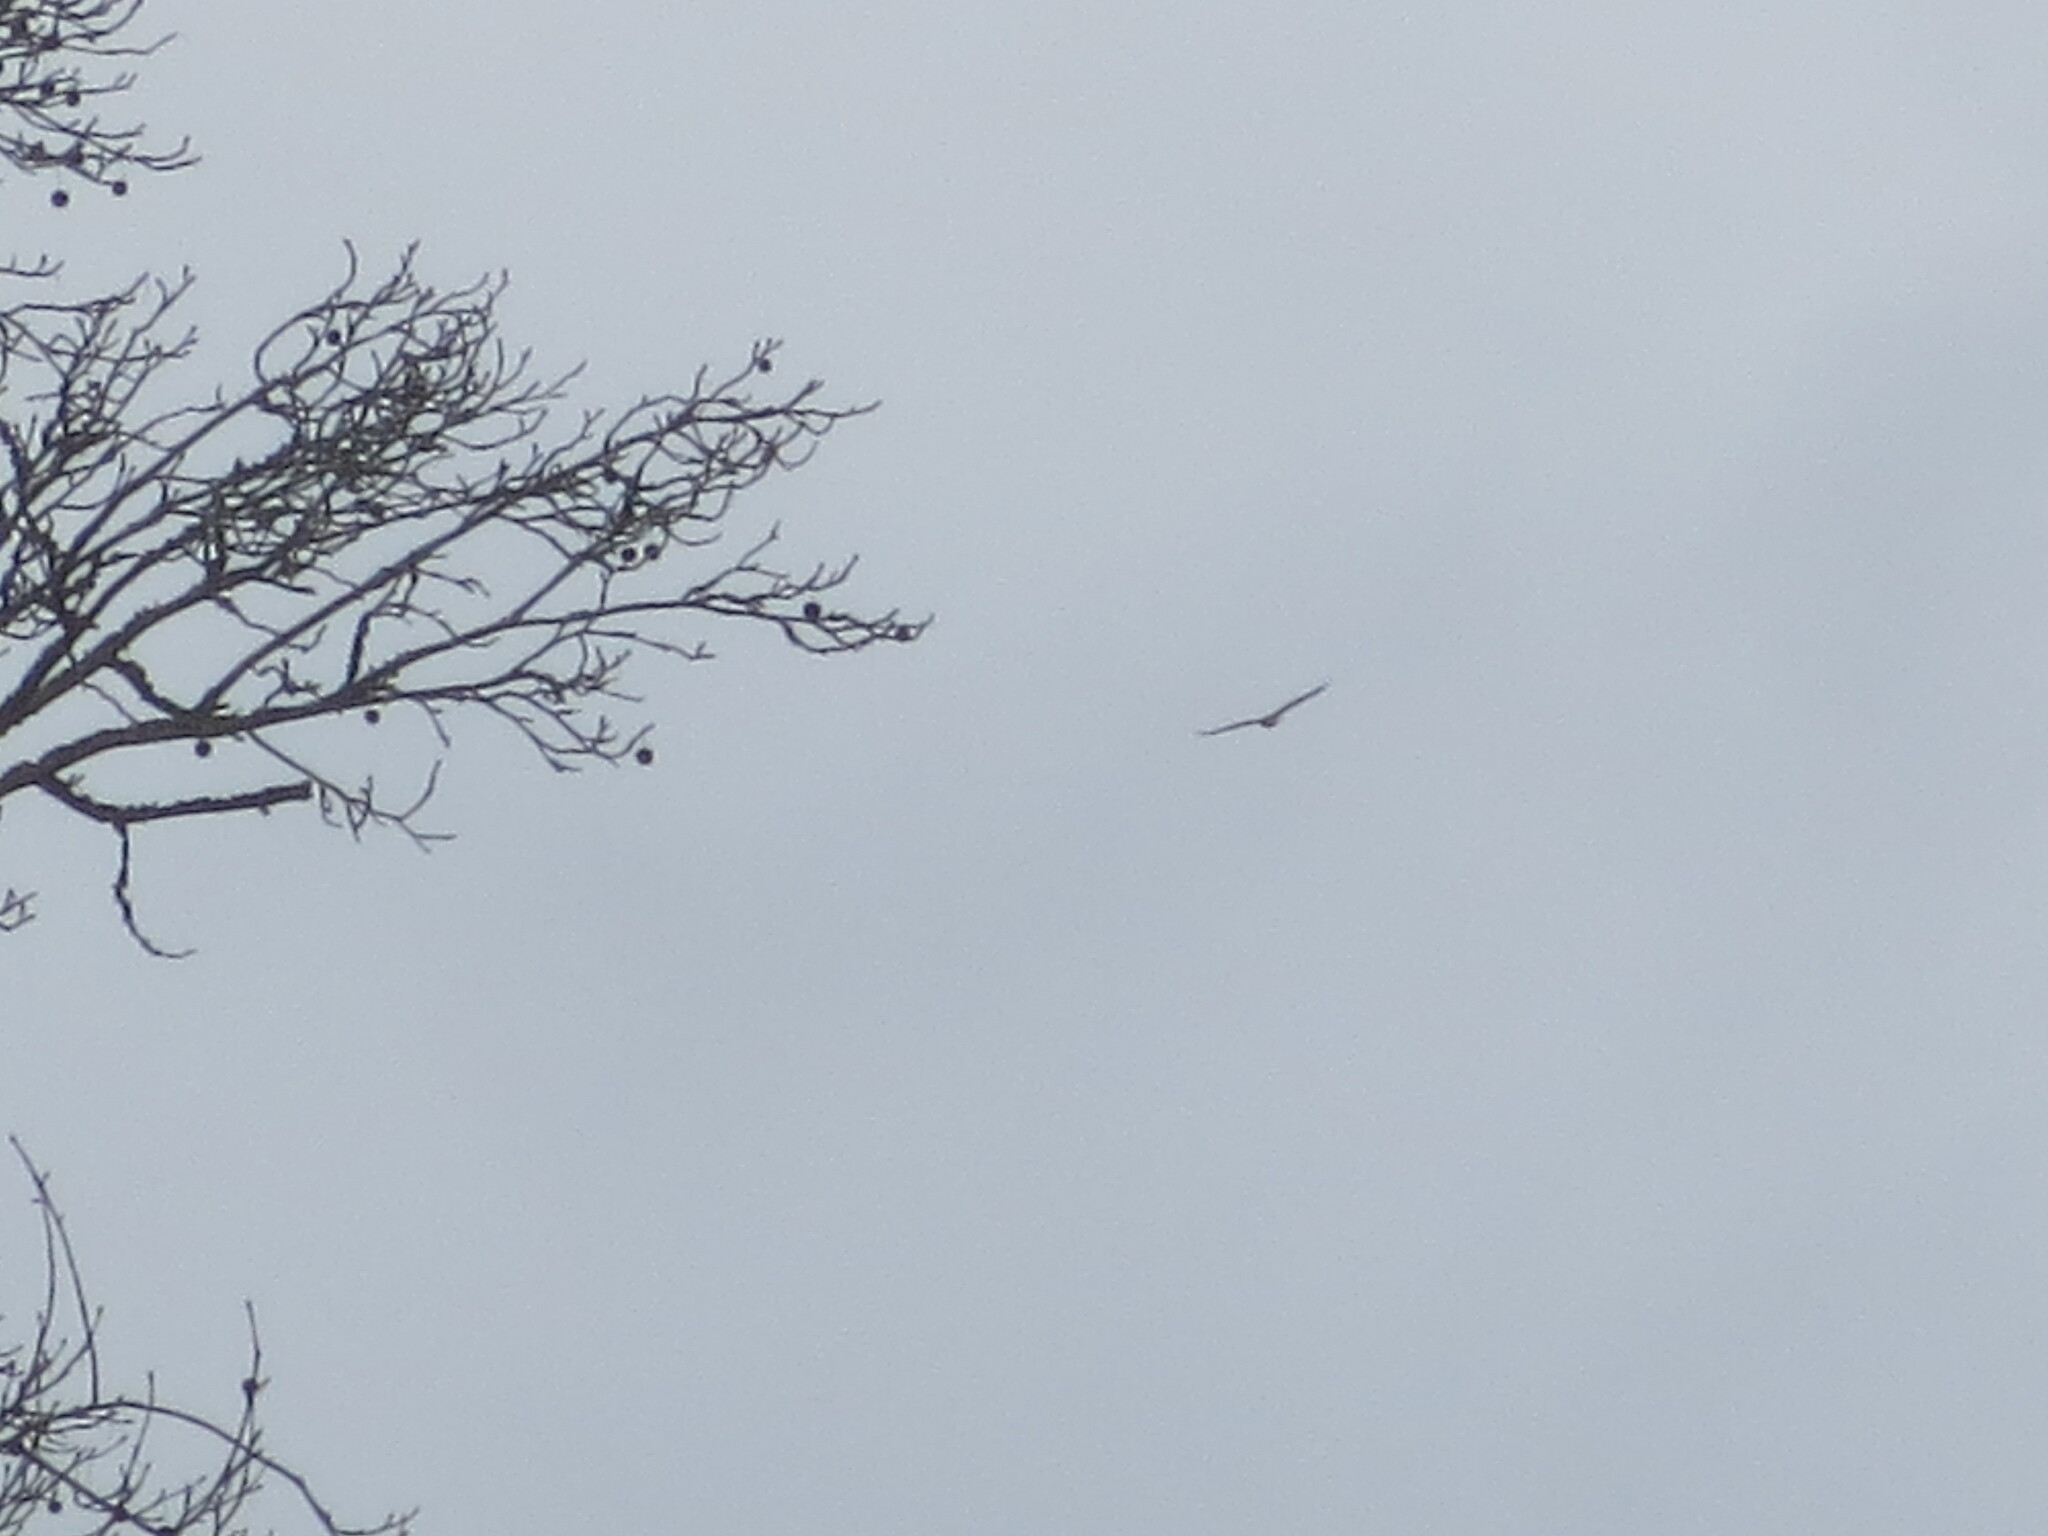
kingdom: Animalia
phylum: Chordata
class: Aves
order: Accipitriformes
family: Accipitridae
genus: Haliaeetus
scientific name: Haliaeetus leucocephalus
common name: Bald eagle
